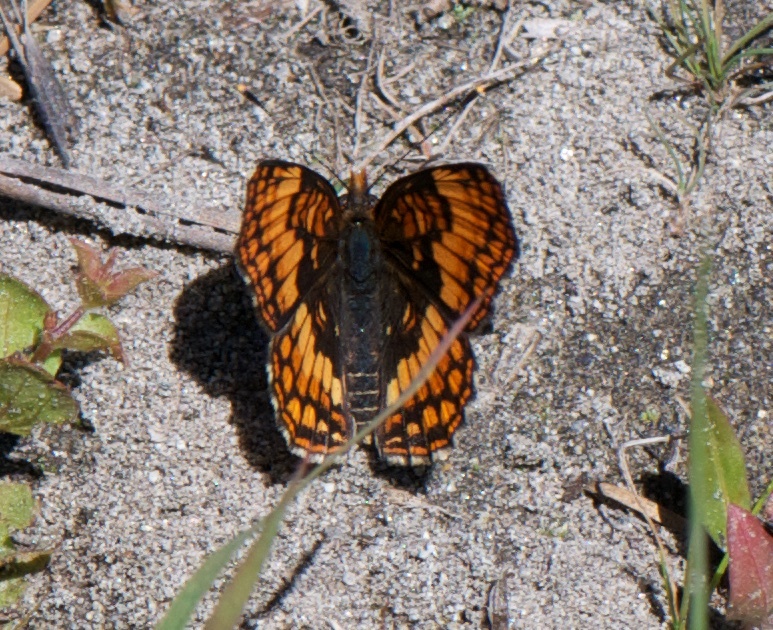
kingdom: Animalia
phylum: Arthropoda
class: Insecta
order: Lepidoptera
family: Nymphalidae
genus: Chlosyne
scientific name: Chlosyne hoffmanni
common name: Hoffmann's checkerspot
